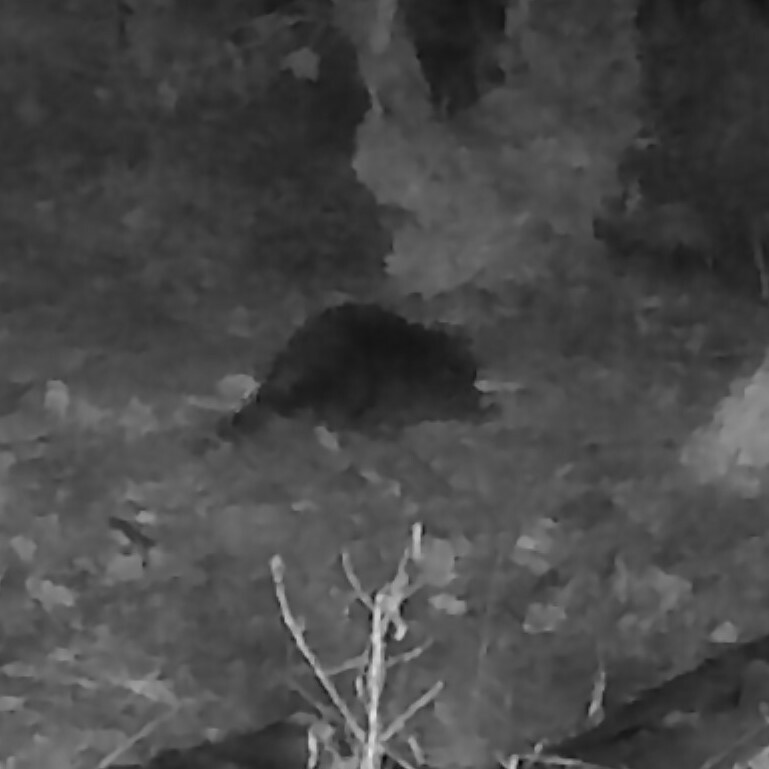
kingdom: Animalia
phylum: Chordata
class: Mammalia
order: Rodentia
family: Castoridae
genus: Castor
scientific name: Castor canadensis
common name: American beaver
